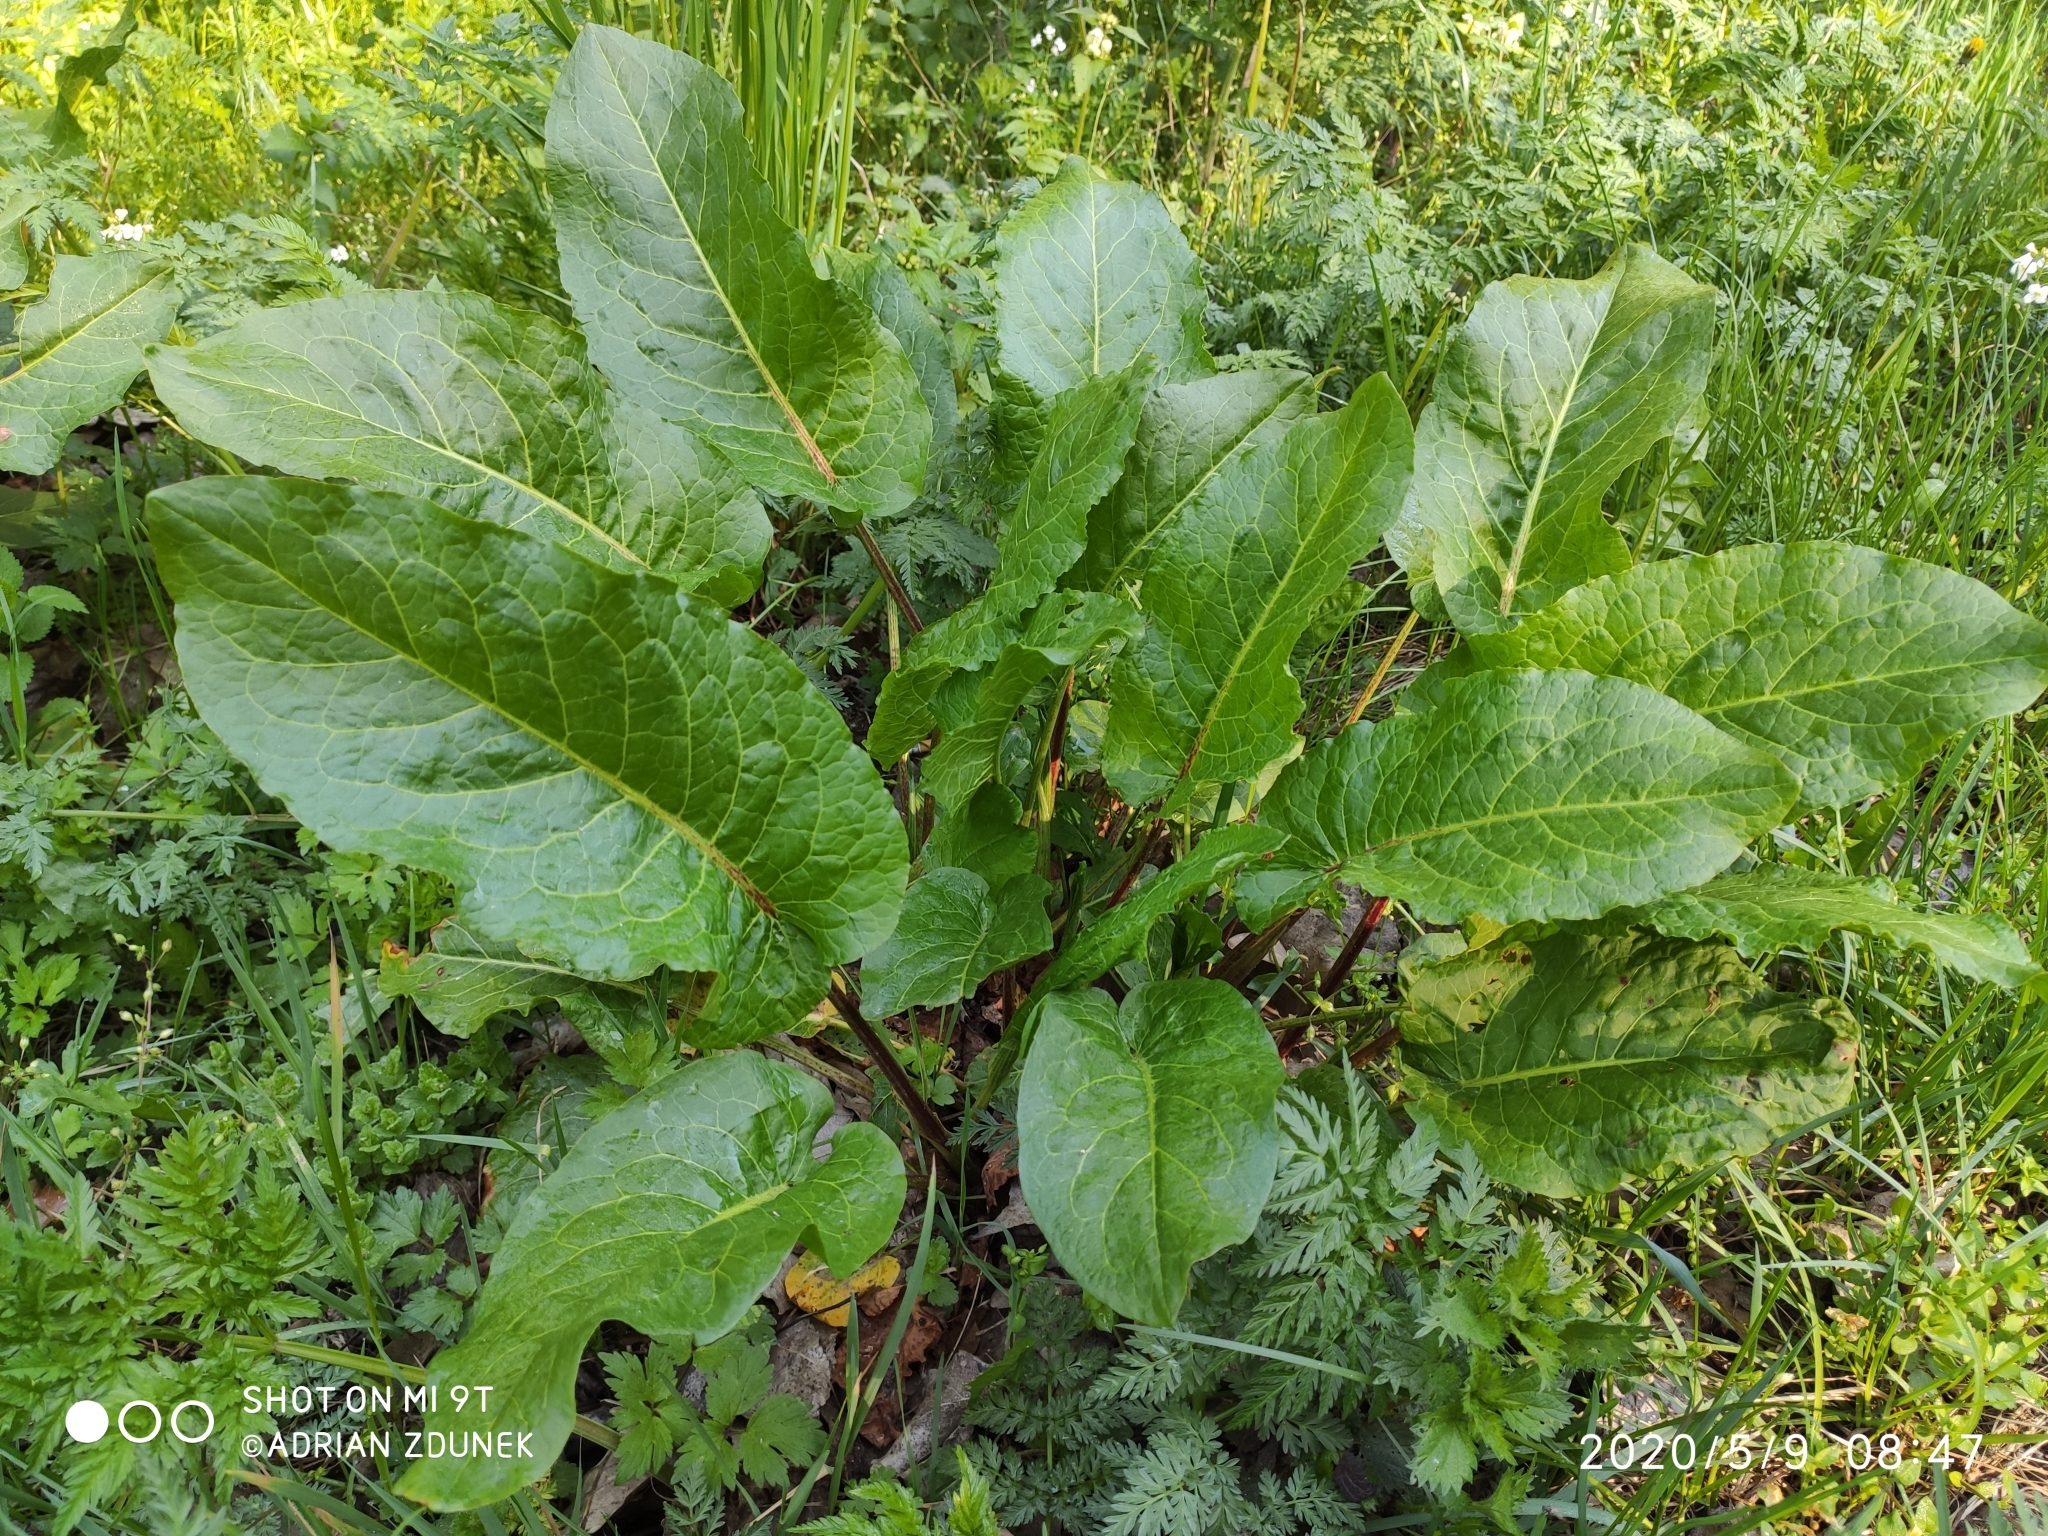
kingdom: Plantae
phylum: Tracheophyta
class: Magnoliopsida
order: Caryophyllales
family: Polygonaceae
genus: Rumex
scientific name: Rumex obtusifolius
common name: Bitter dock
